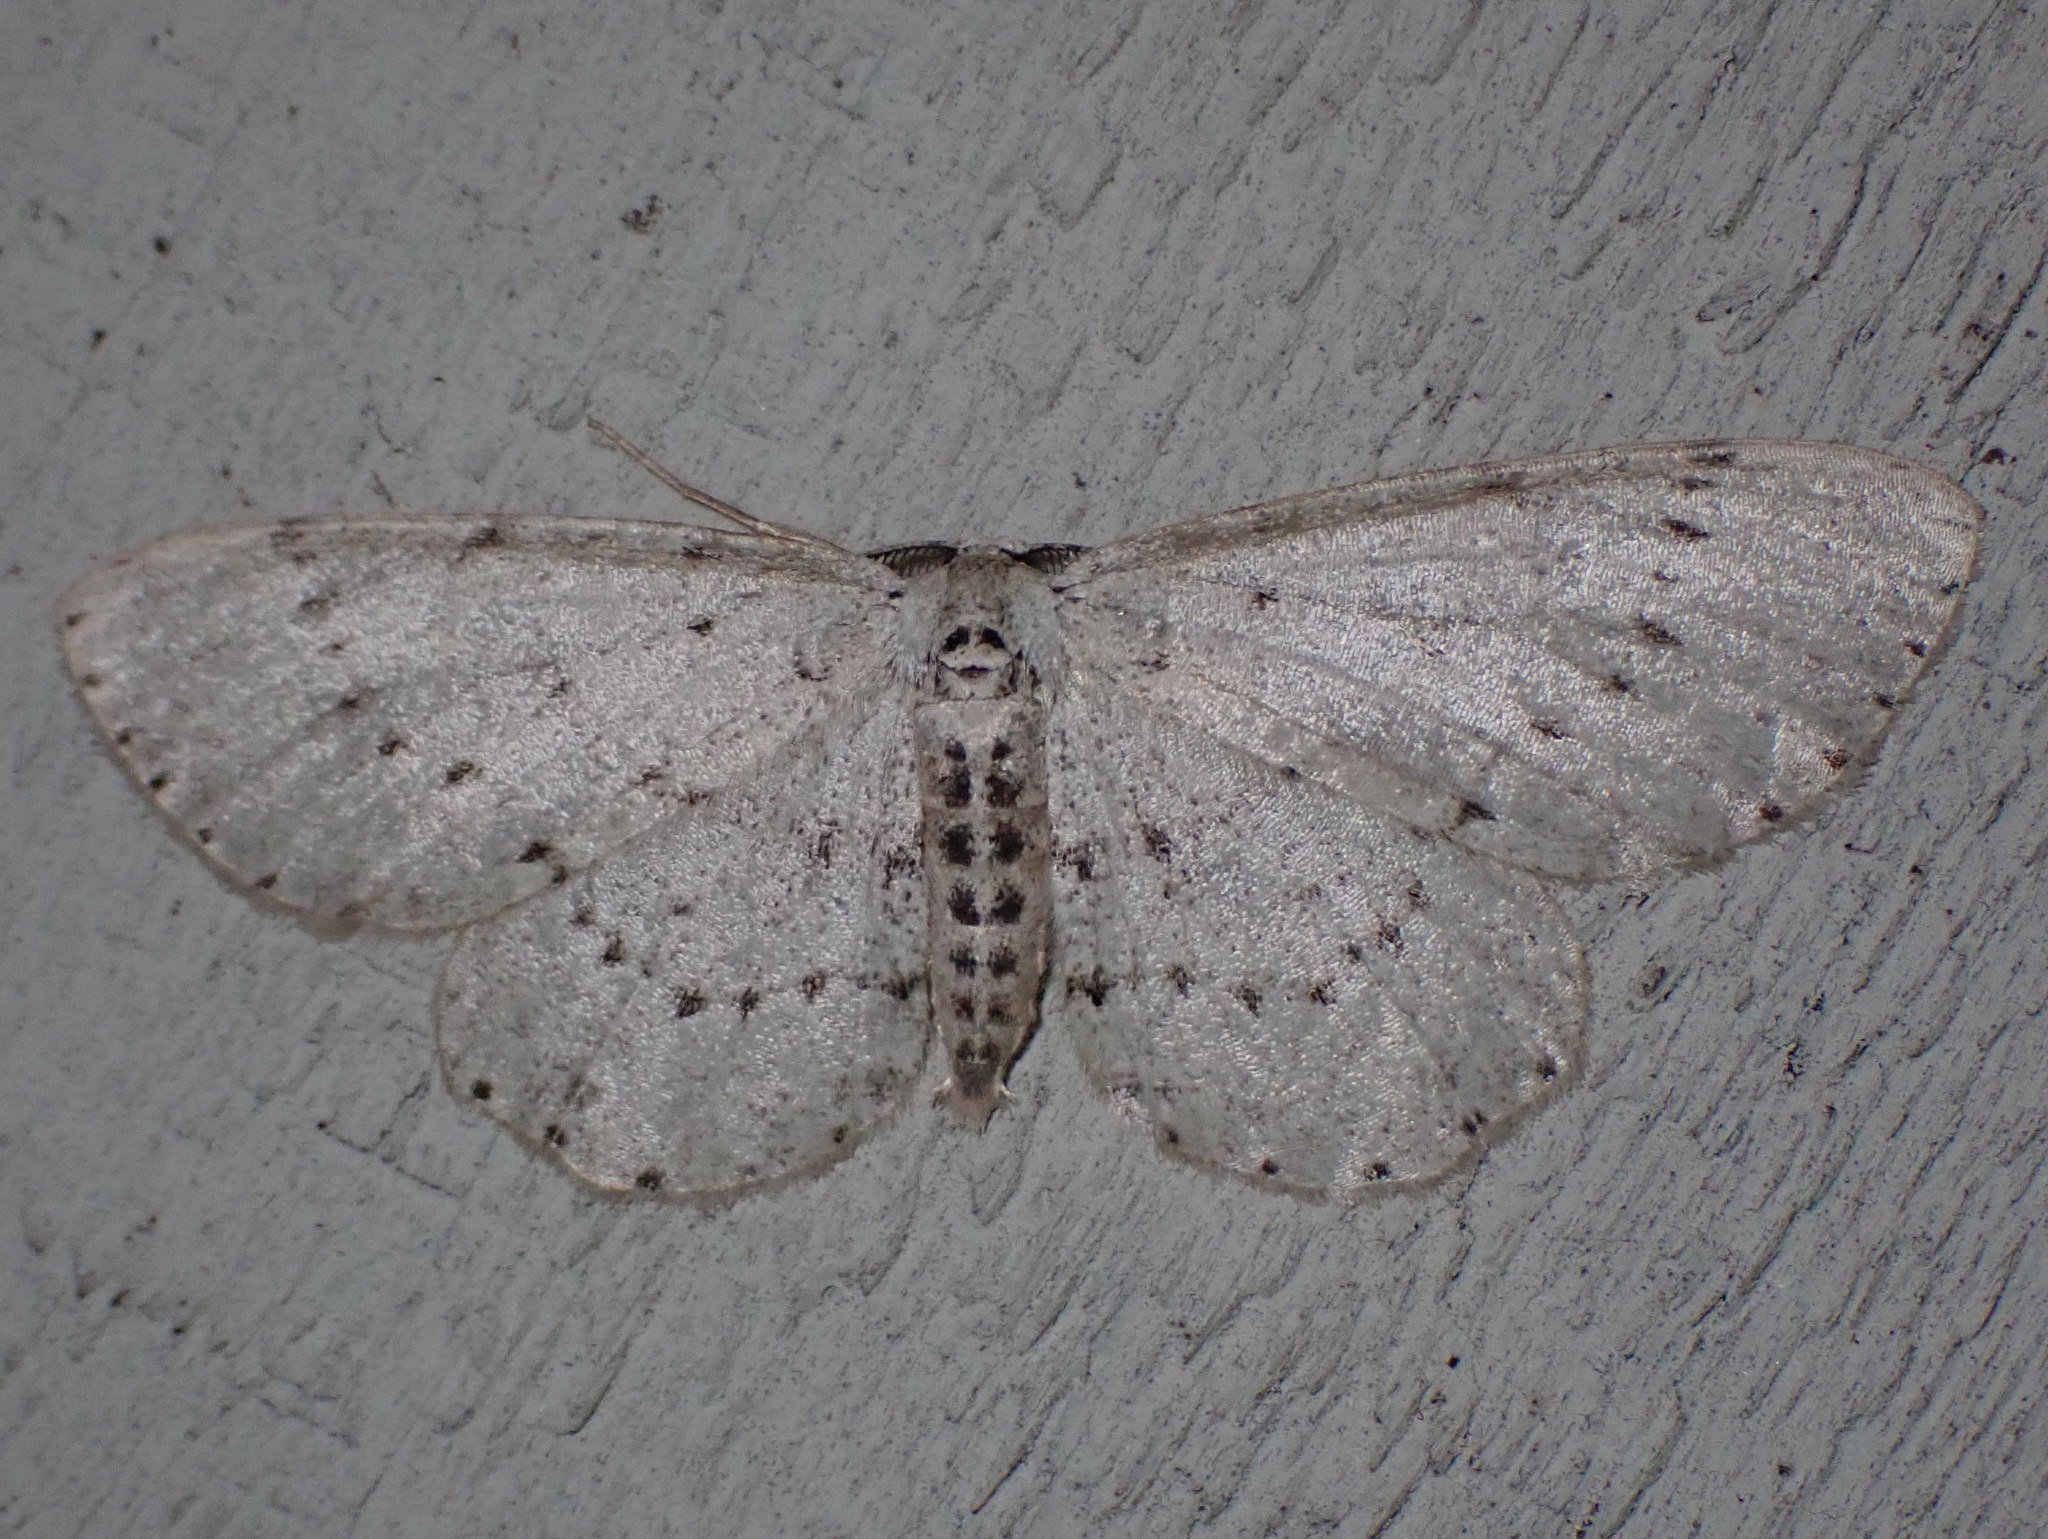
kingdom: Animalia
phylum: Arthropoda
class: Insecta
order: Lepidoptera
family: Geometridae
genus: Glena
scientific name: Glena cribrataria
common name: Dotted gray
